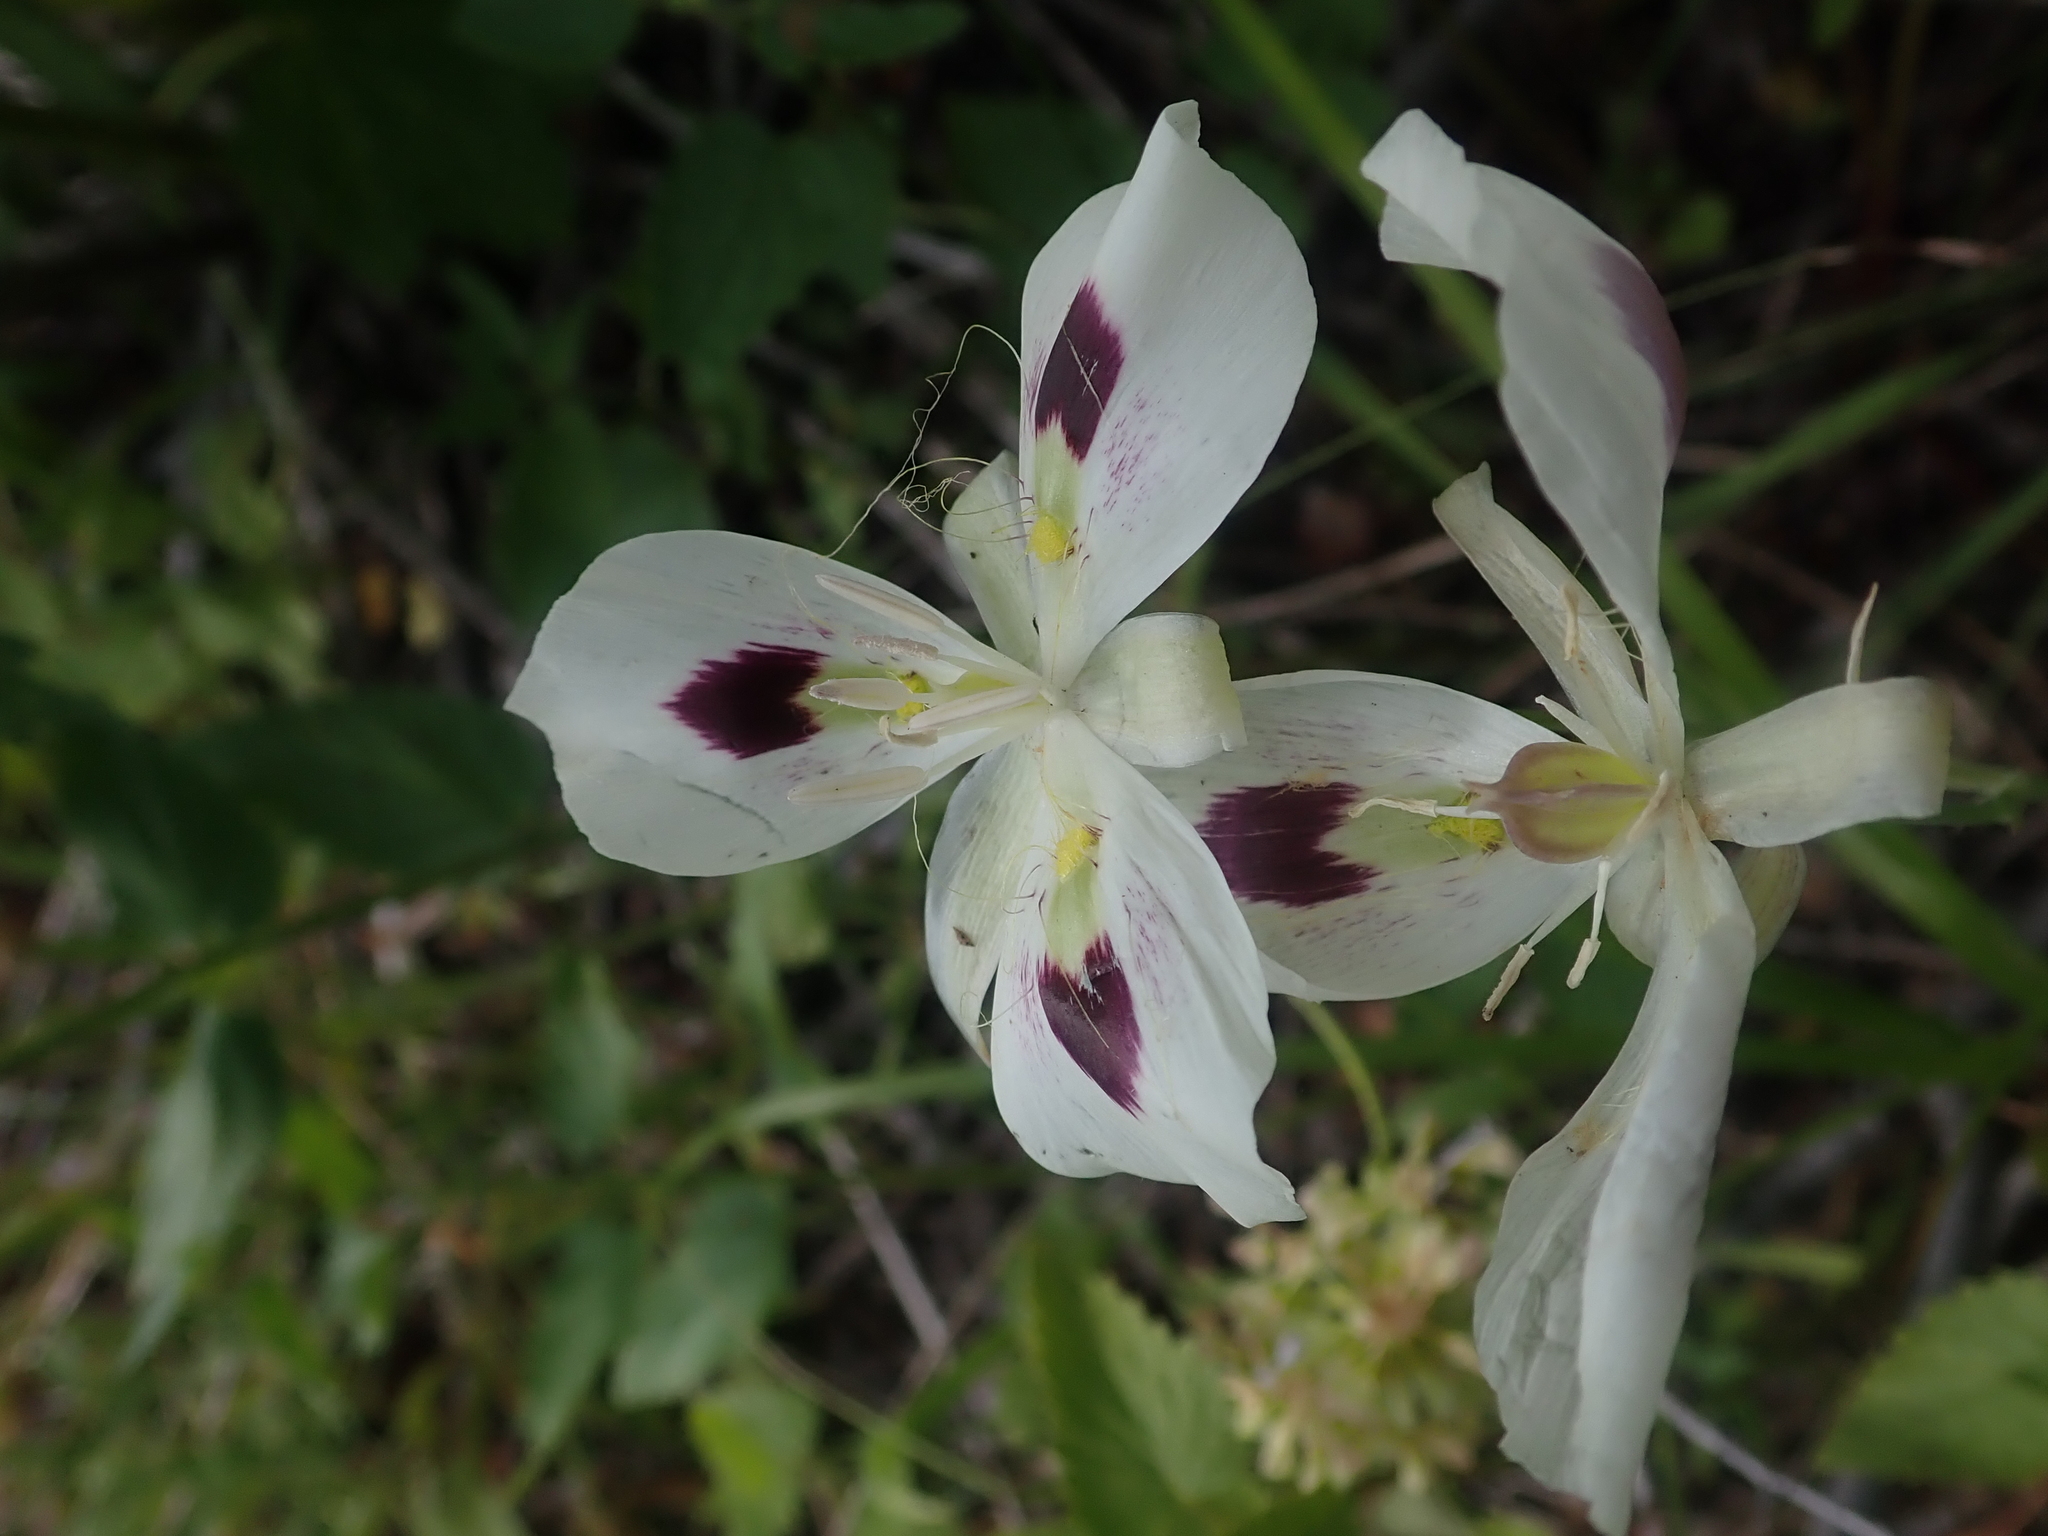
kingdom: Plantae
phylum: Tracheophyta
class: Liliopsida
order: Liliales
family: Liliaceae
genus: Calochortus
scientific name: Calochortus eurycarpus
